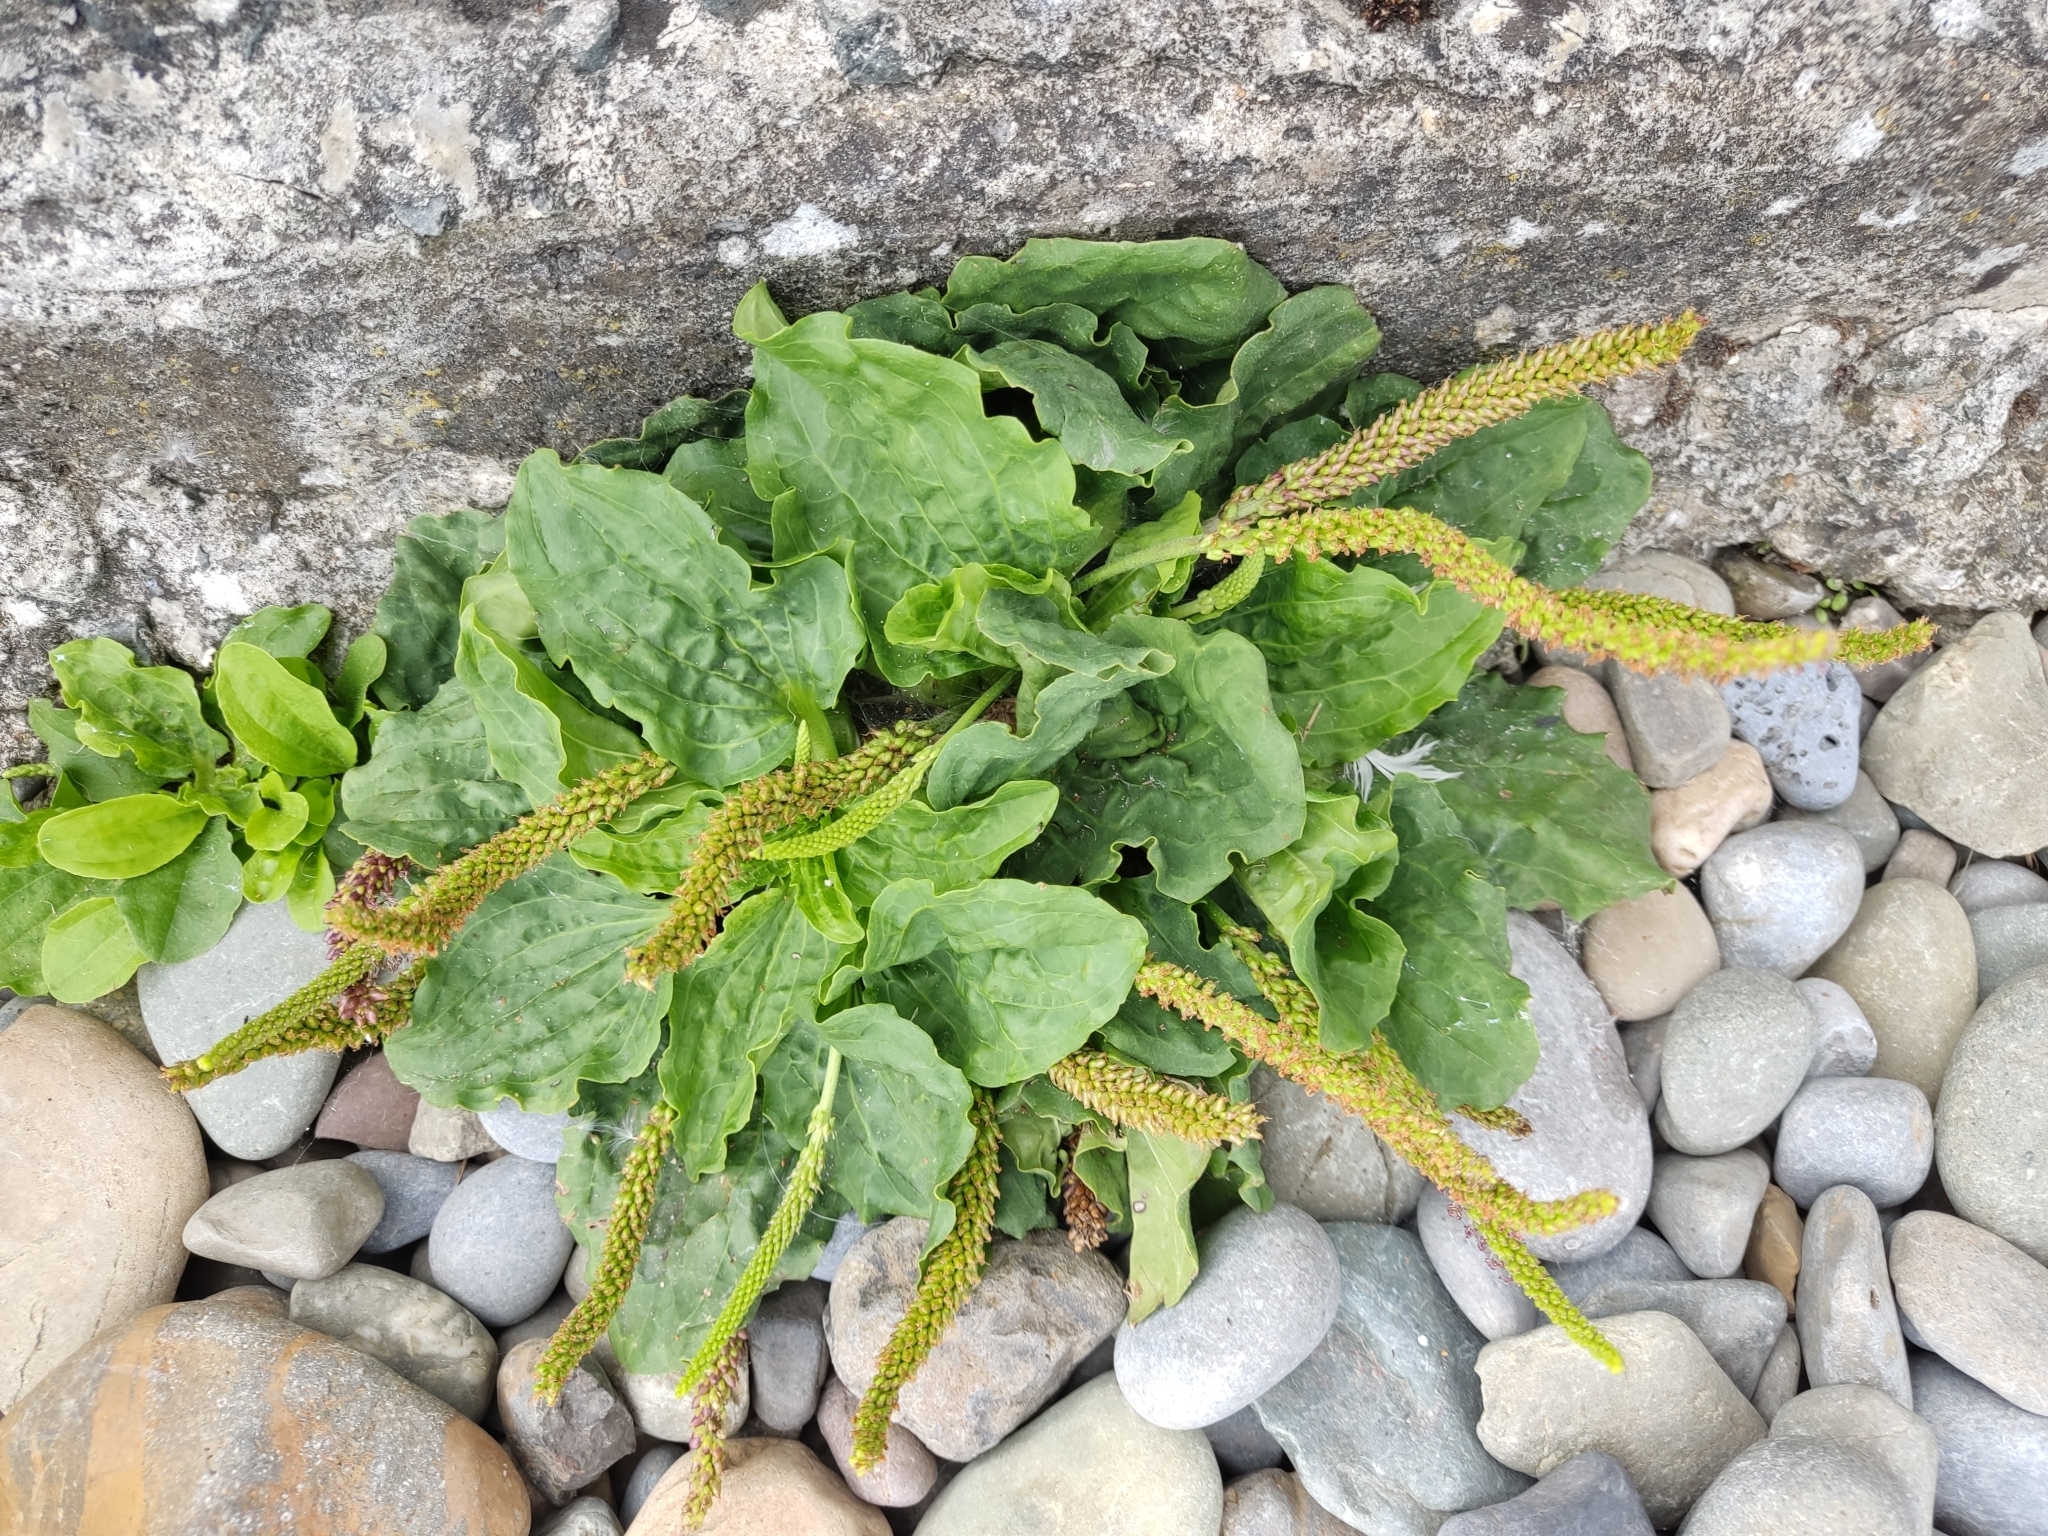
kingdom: Plantae
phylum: Tracheophyta
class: Magnoliopsida
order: Lamiales
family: Plantaginaceae
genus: Plantago
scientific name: Plantago major
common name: Common plantain
